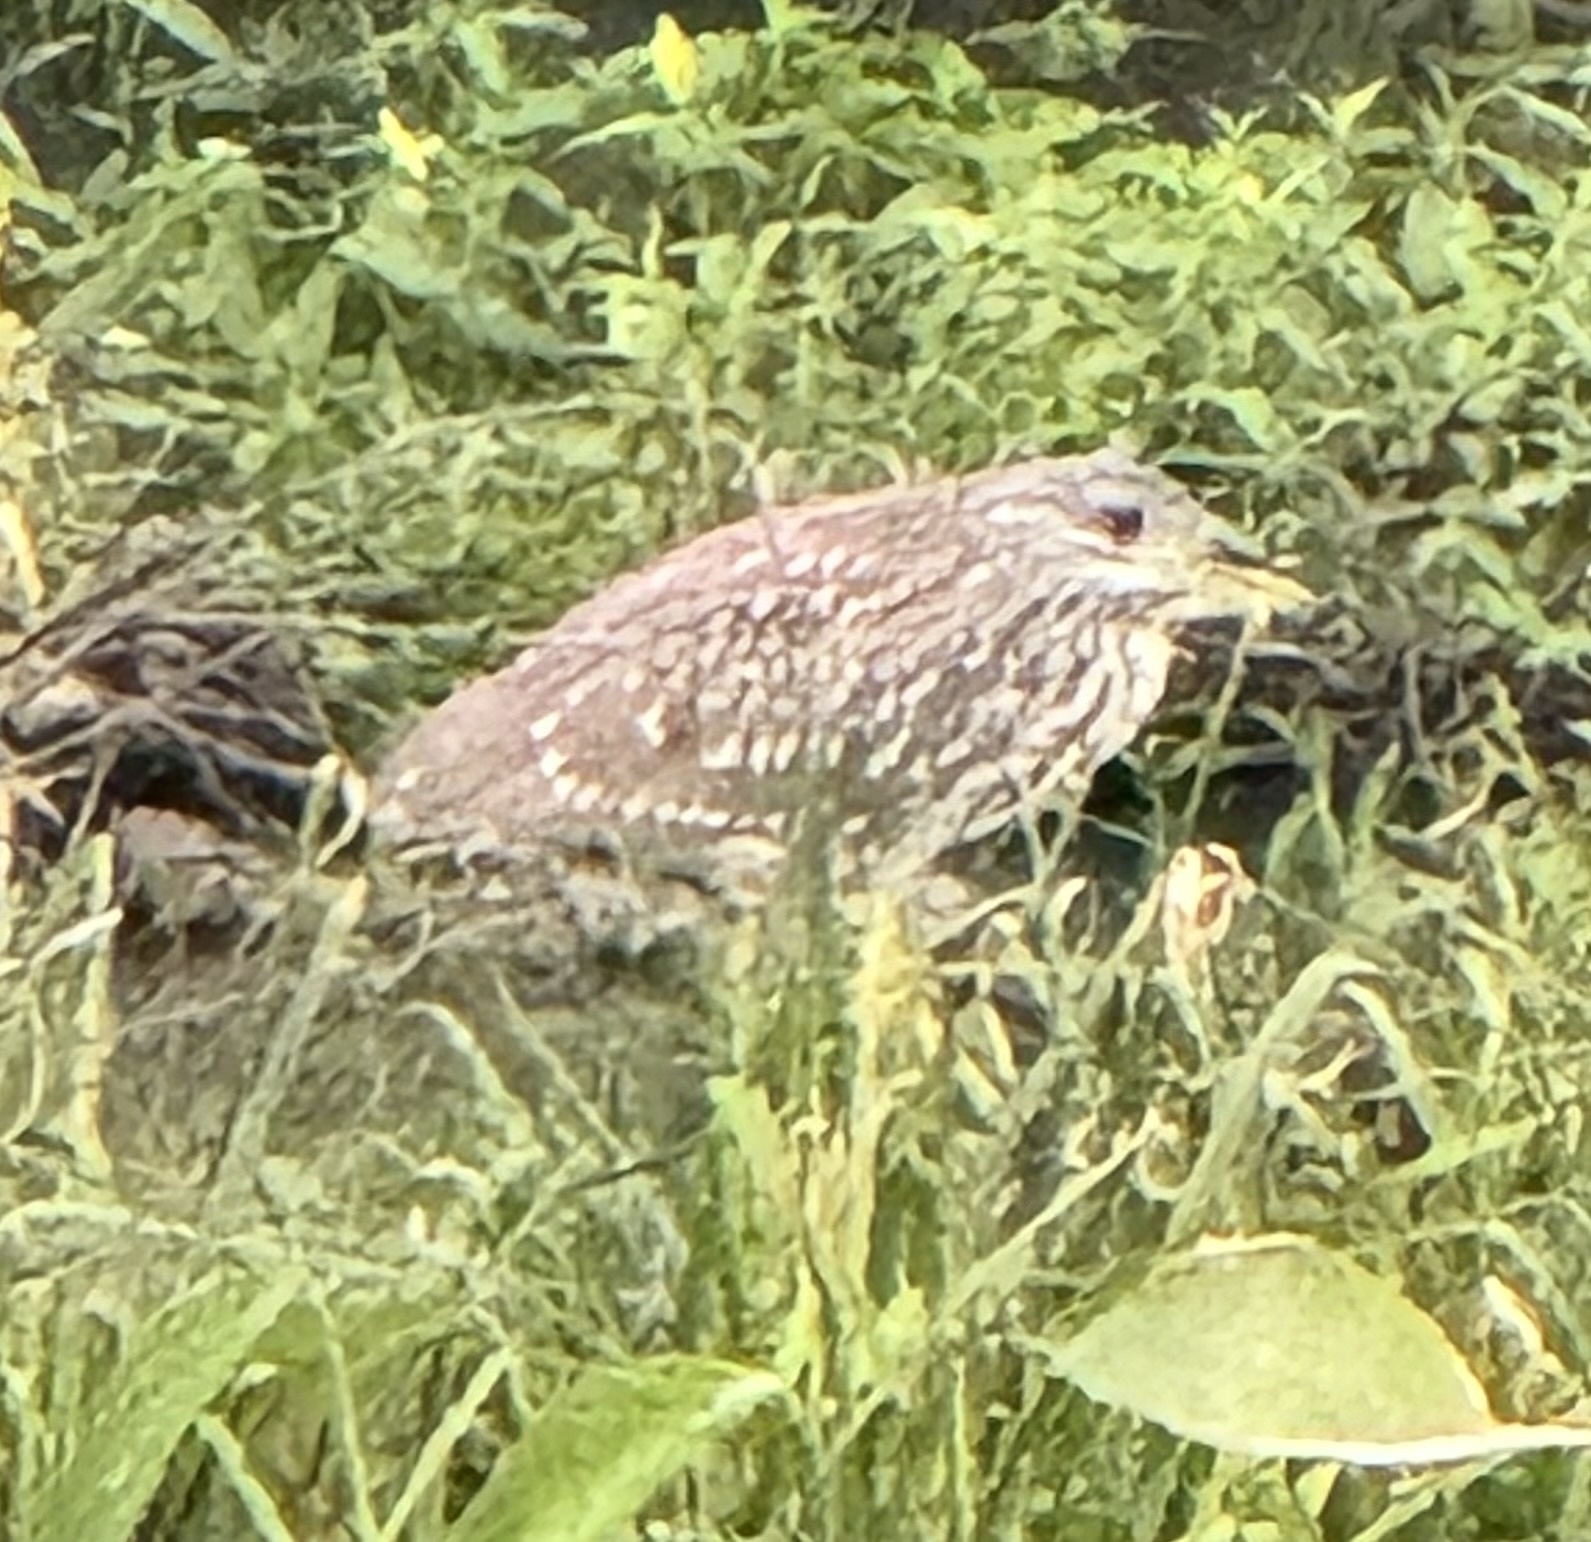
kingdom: Animalia
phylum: Chordata
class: Aves
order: Pelecaniformes
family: Ardeidae
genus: Nycticorax
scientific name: Nycticorax nycticorax
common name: Black-crowned night heron
